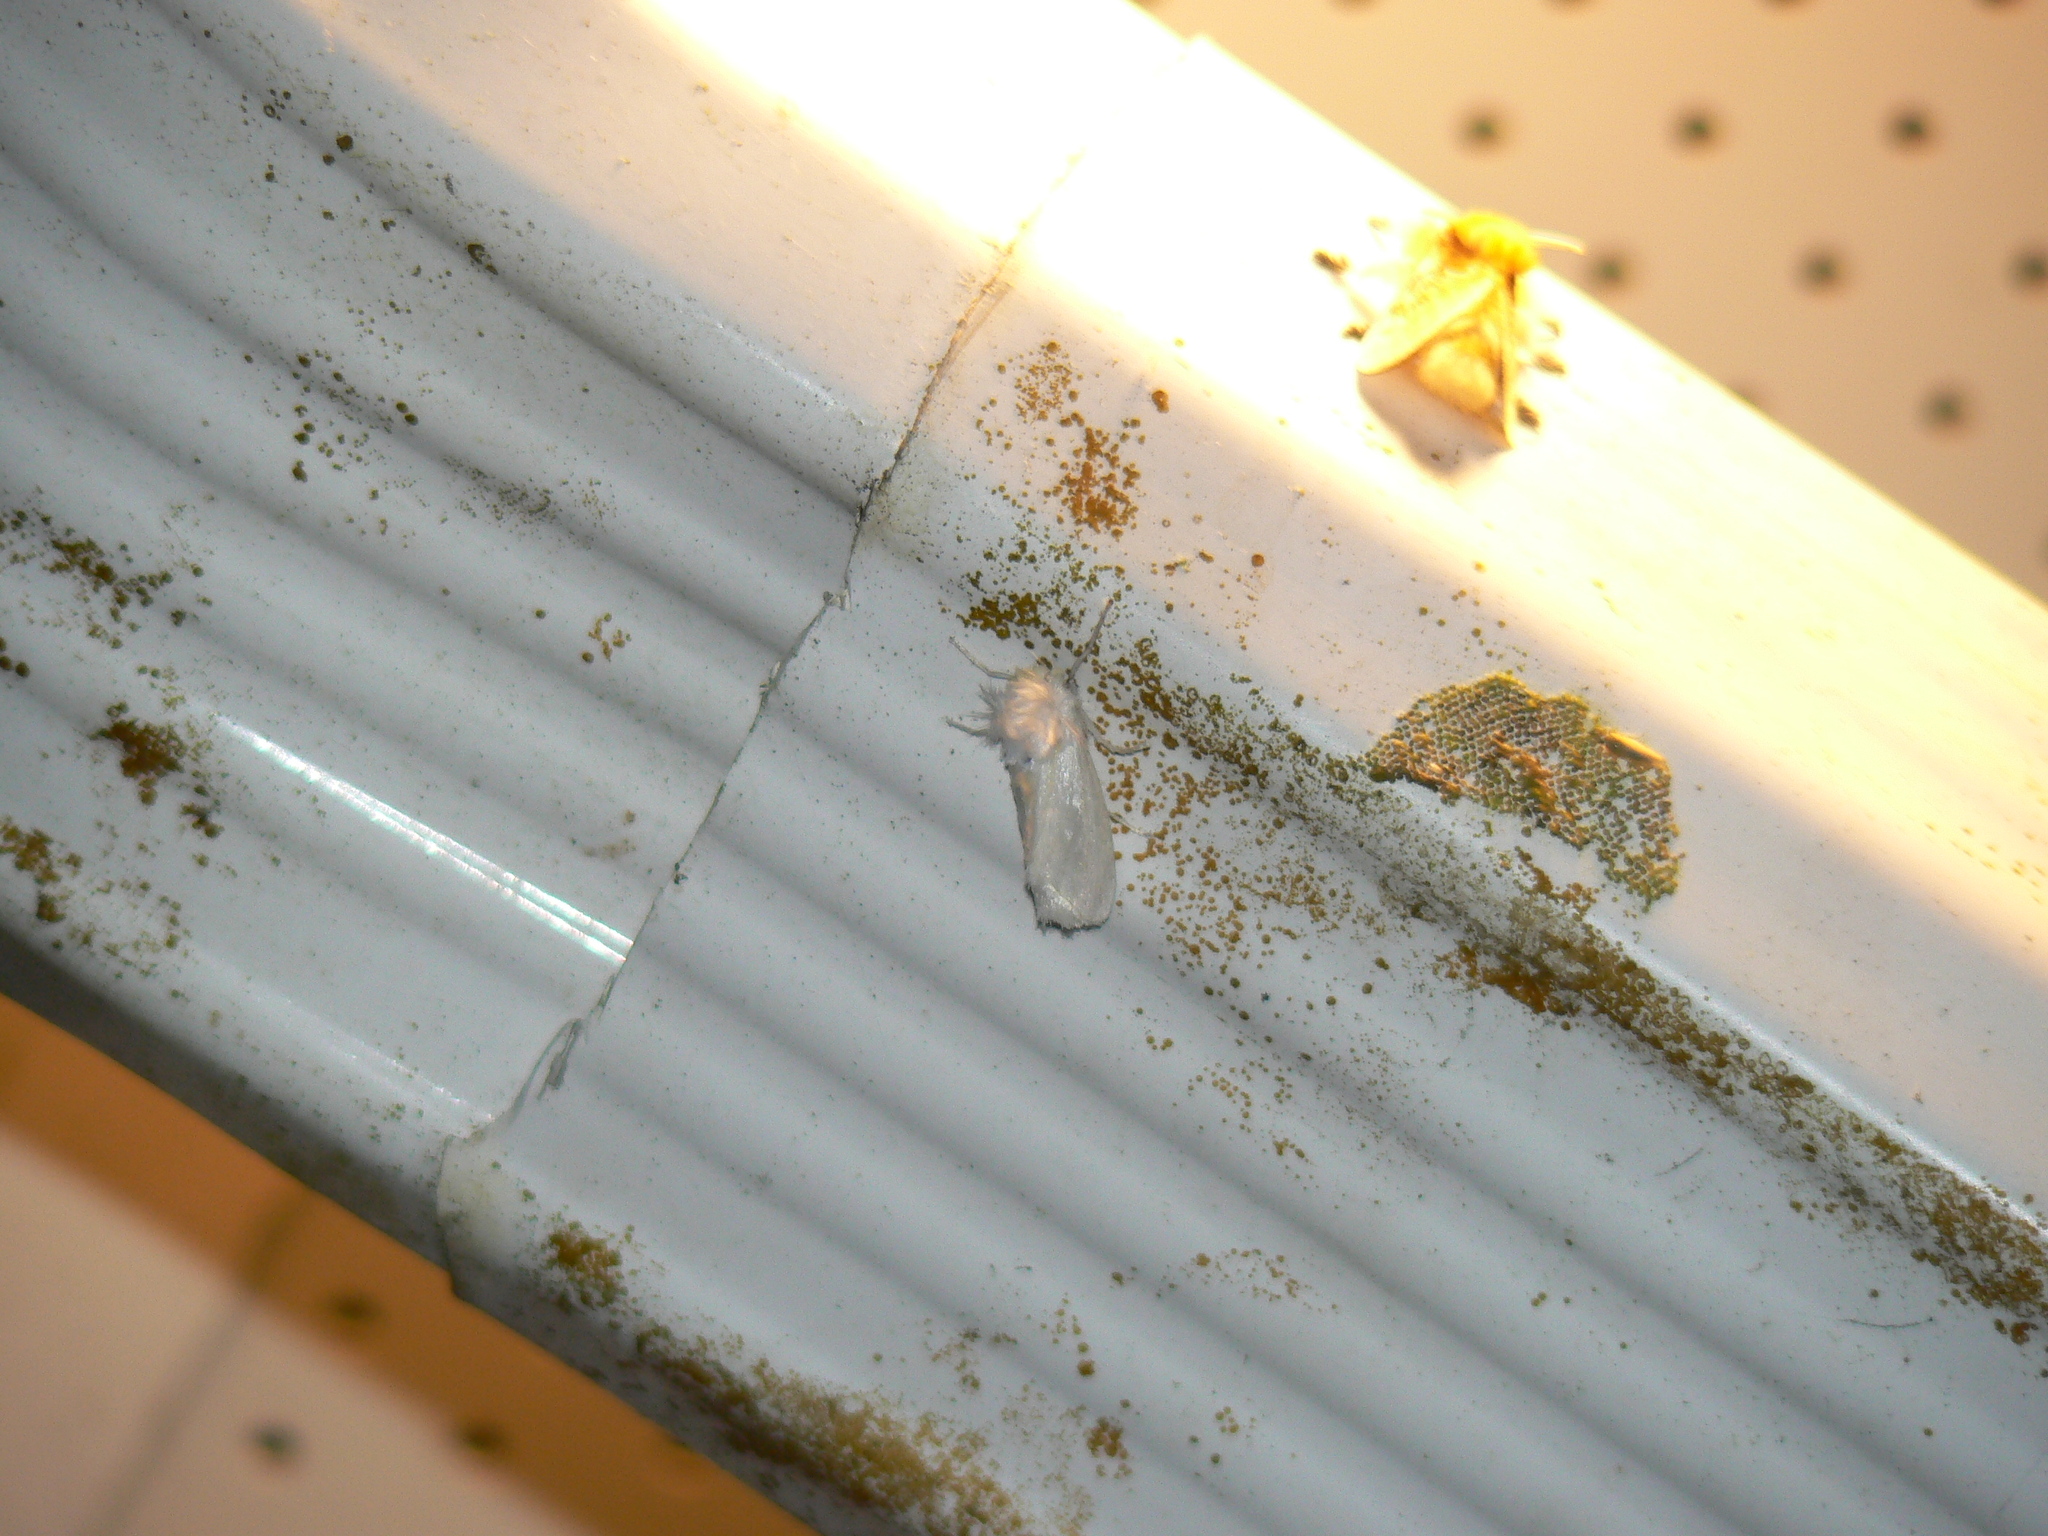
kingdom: Animalia
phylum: Arthropoda
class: Insecta
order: Lepidoptera
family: Megalopygidae
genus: Norape
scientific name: Norape cretata
